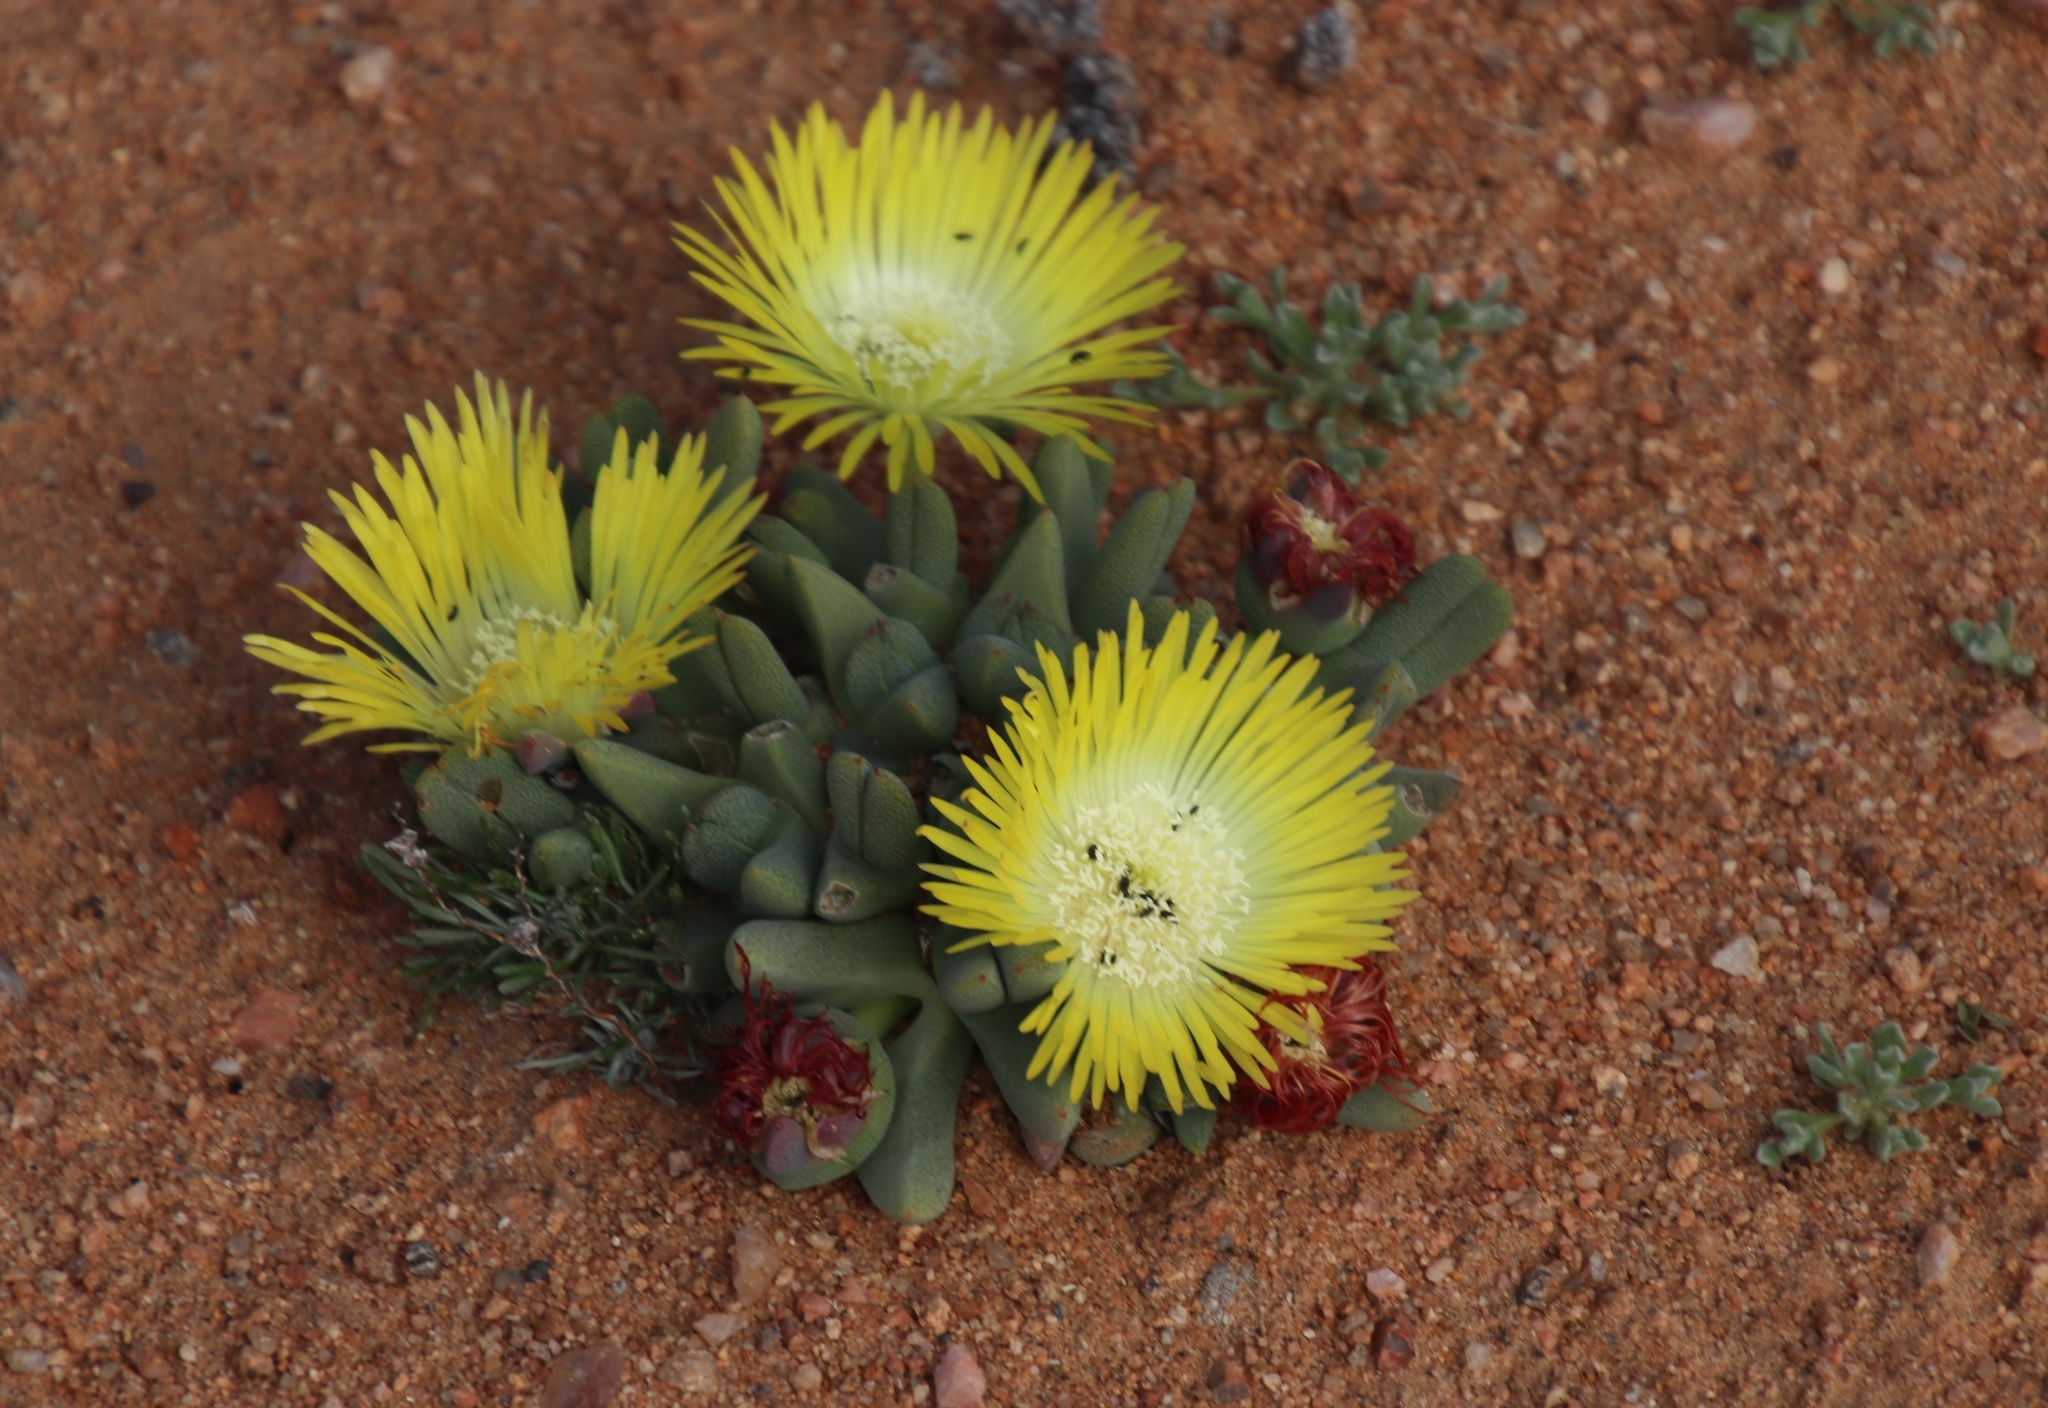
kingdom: Plantae
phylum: Tracheophyta
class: Magnoliopsida
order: Caryophyllales
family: Aizoaceae
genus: Cheiridopsis
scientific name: Cheiridopsis namaquensis
